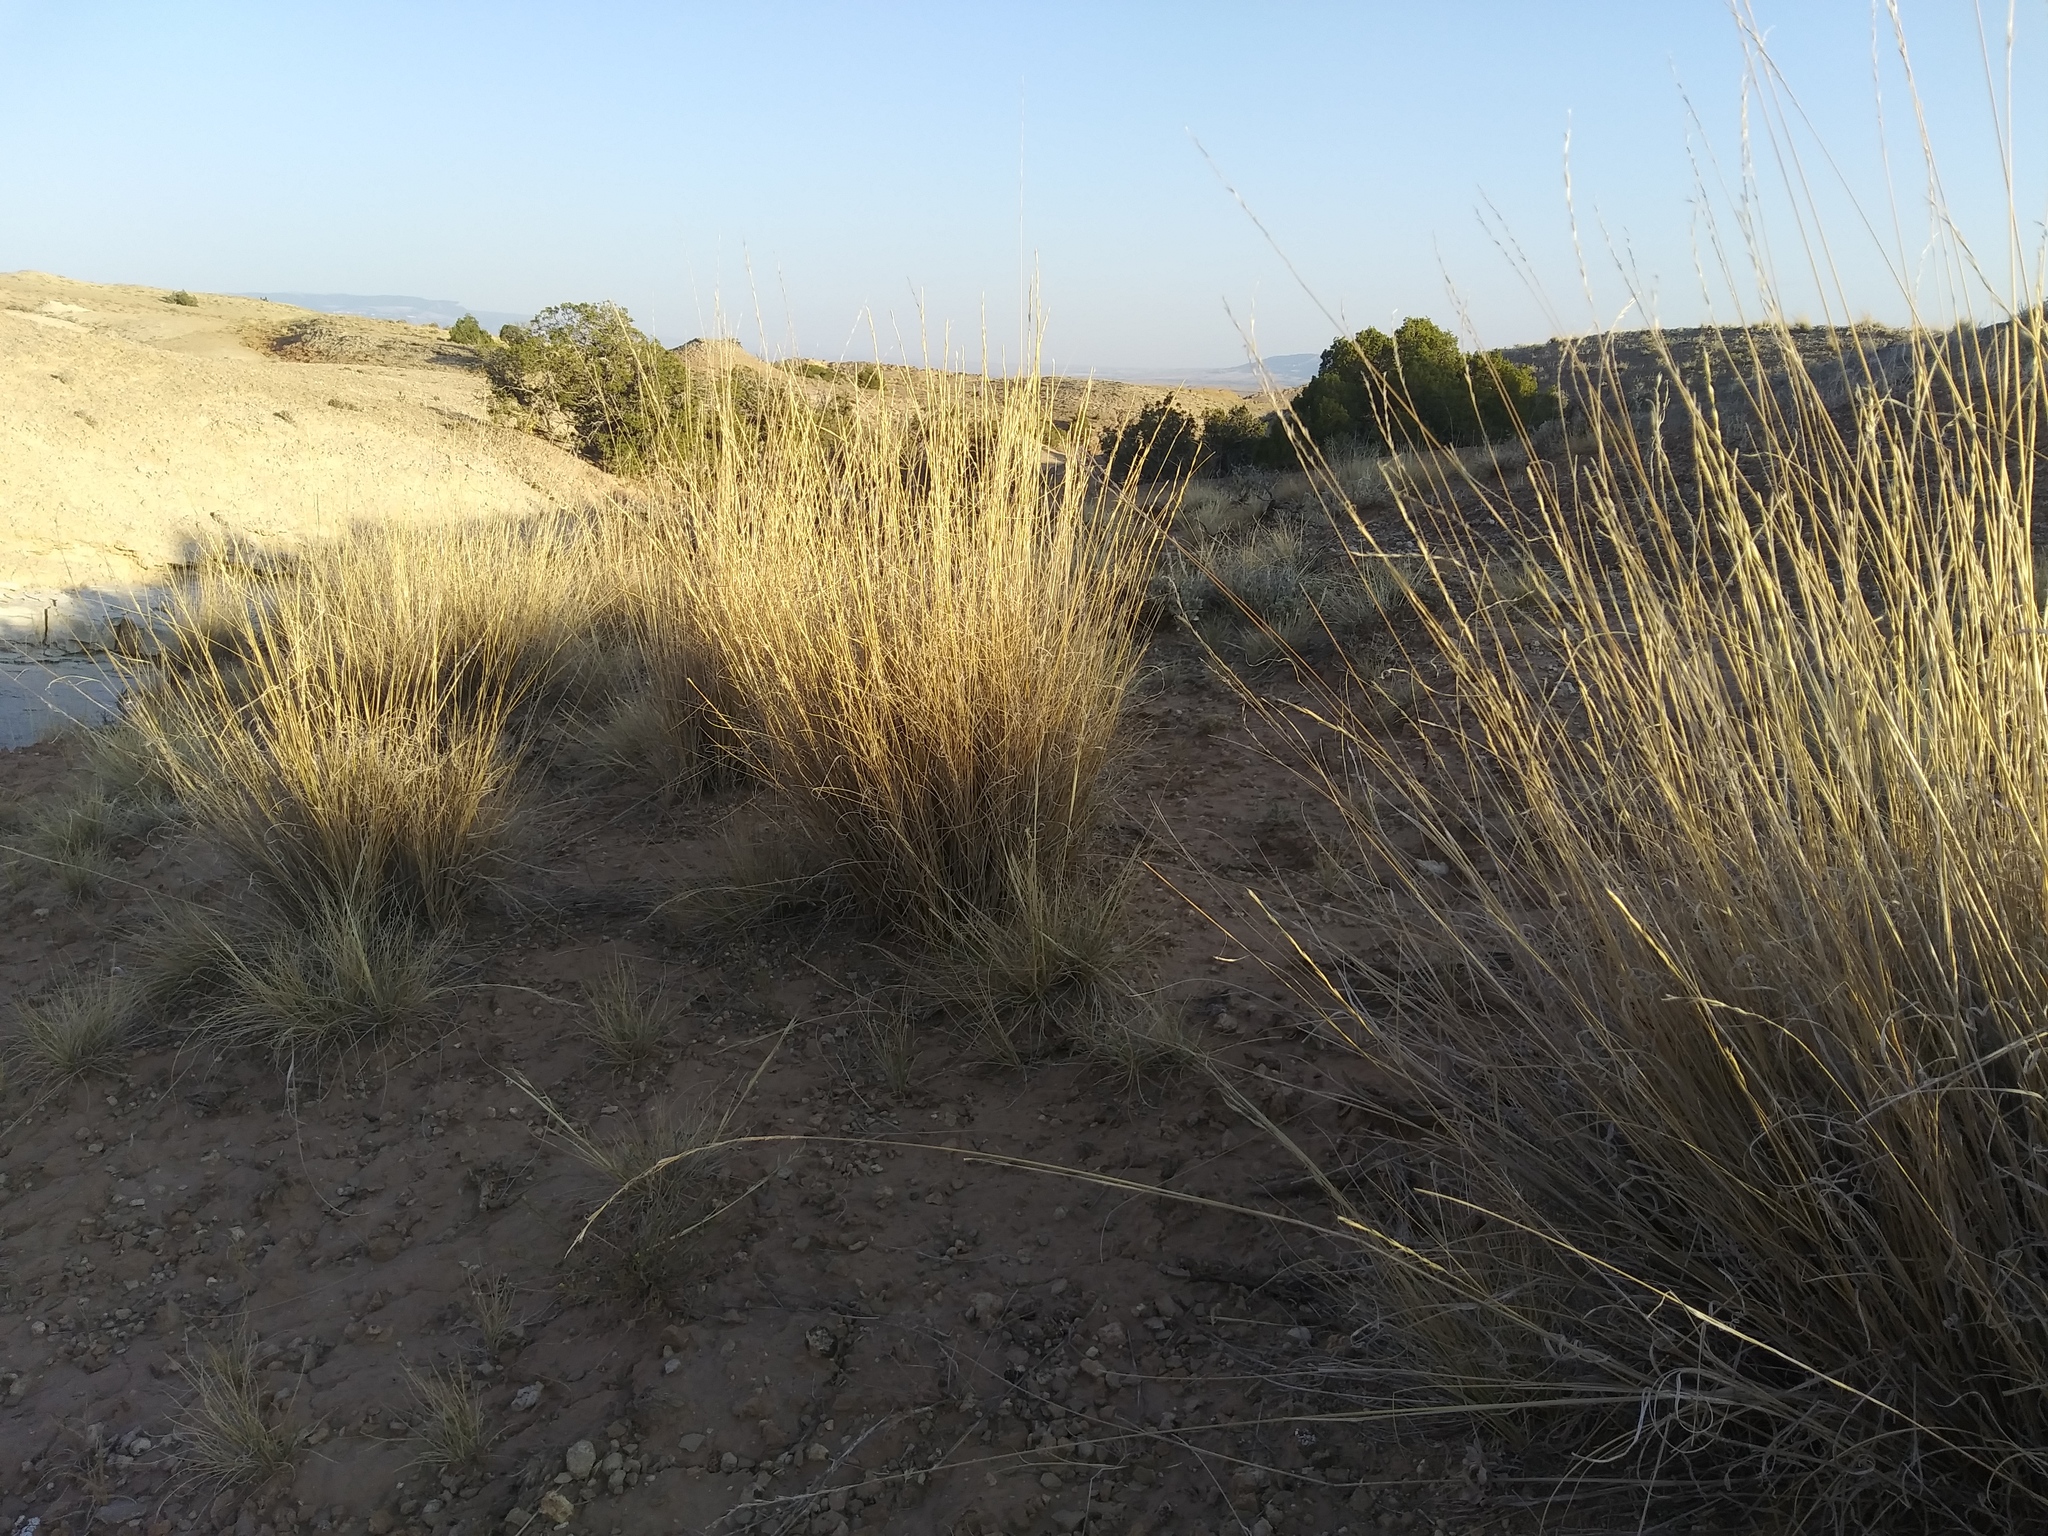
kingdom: Plantae
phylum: Tracheophyta
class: Liliopsida
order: Poales
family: Poaceae
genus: Pseudoroegneria
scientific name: Pseudoroegneria spicata
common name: Bluebunch wheatgrass
